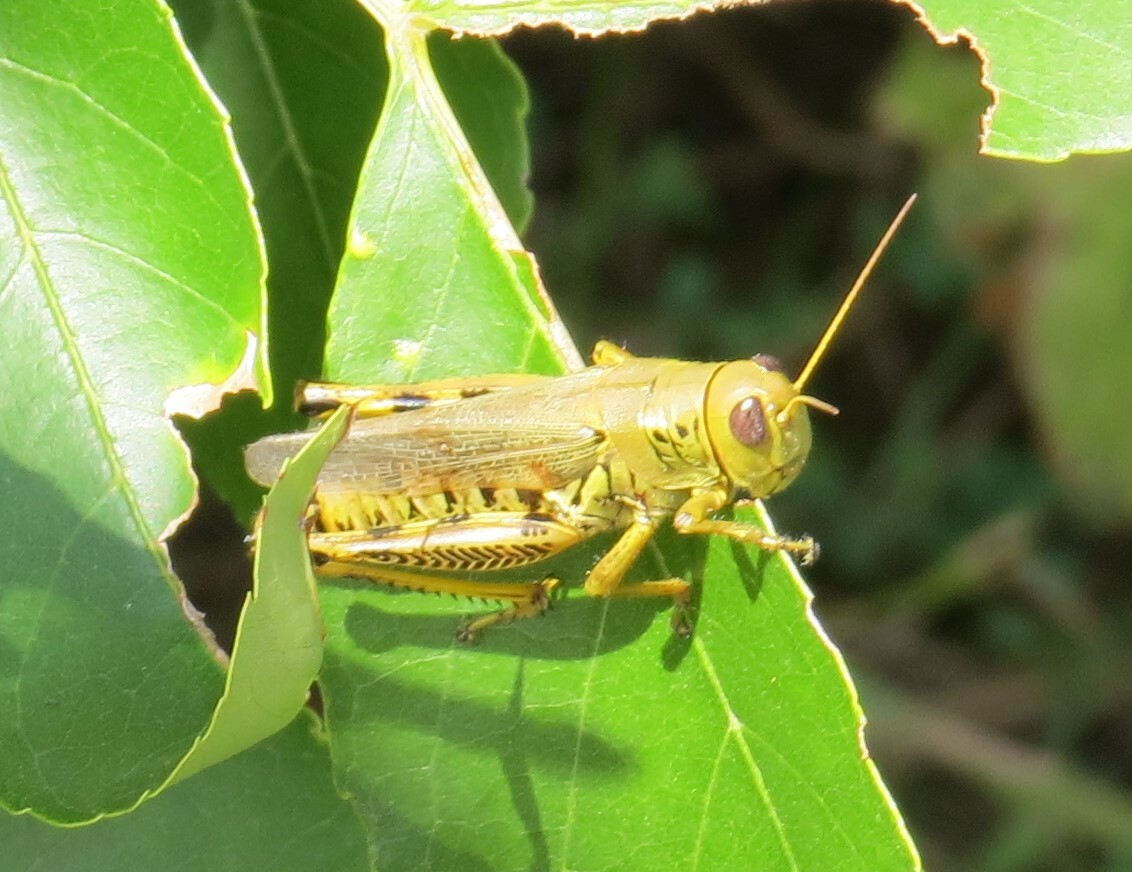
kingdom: Animalia
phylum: Arthropoda
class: Insecta
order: Orthoptera
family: Acrididae
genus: Melanoplus
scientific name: Melanoplus differentialis
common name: Differential grasshopper
